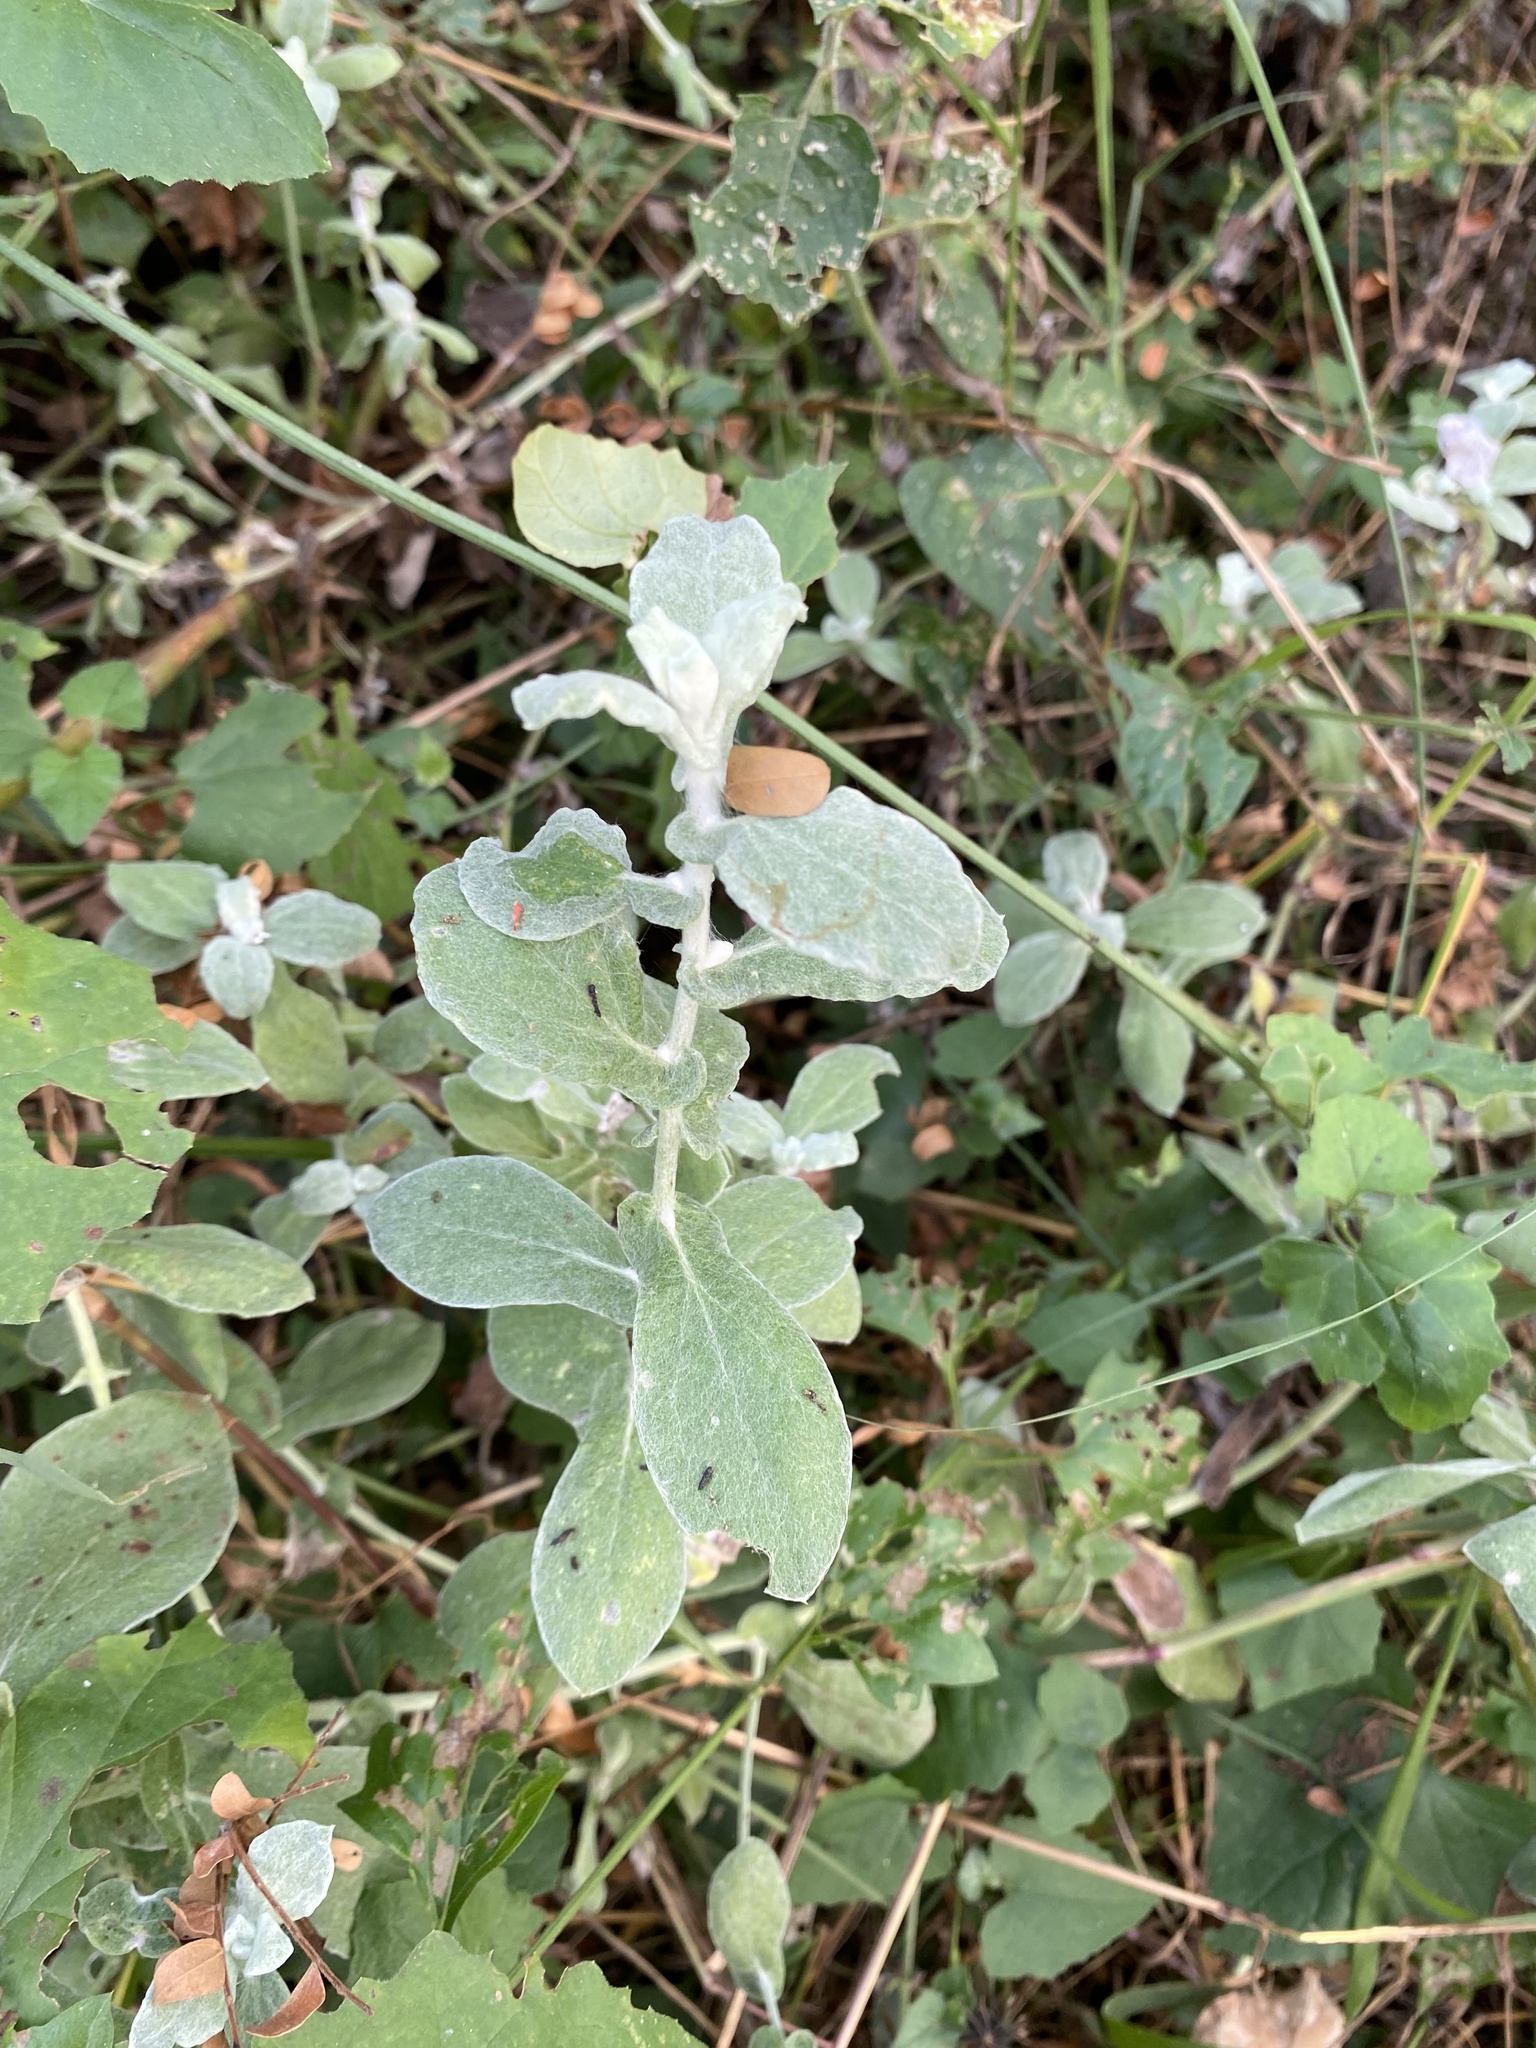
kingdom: Plantae
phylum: Tracheophyta
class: Magnoliopsida
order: Asterales
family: Asteraceae
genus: Helichrysum
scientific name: Helichrysum panduratum
